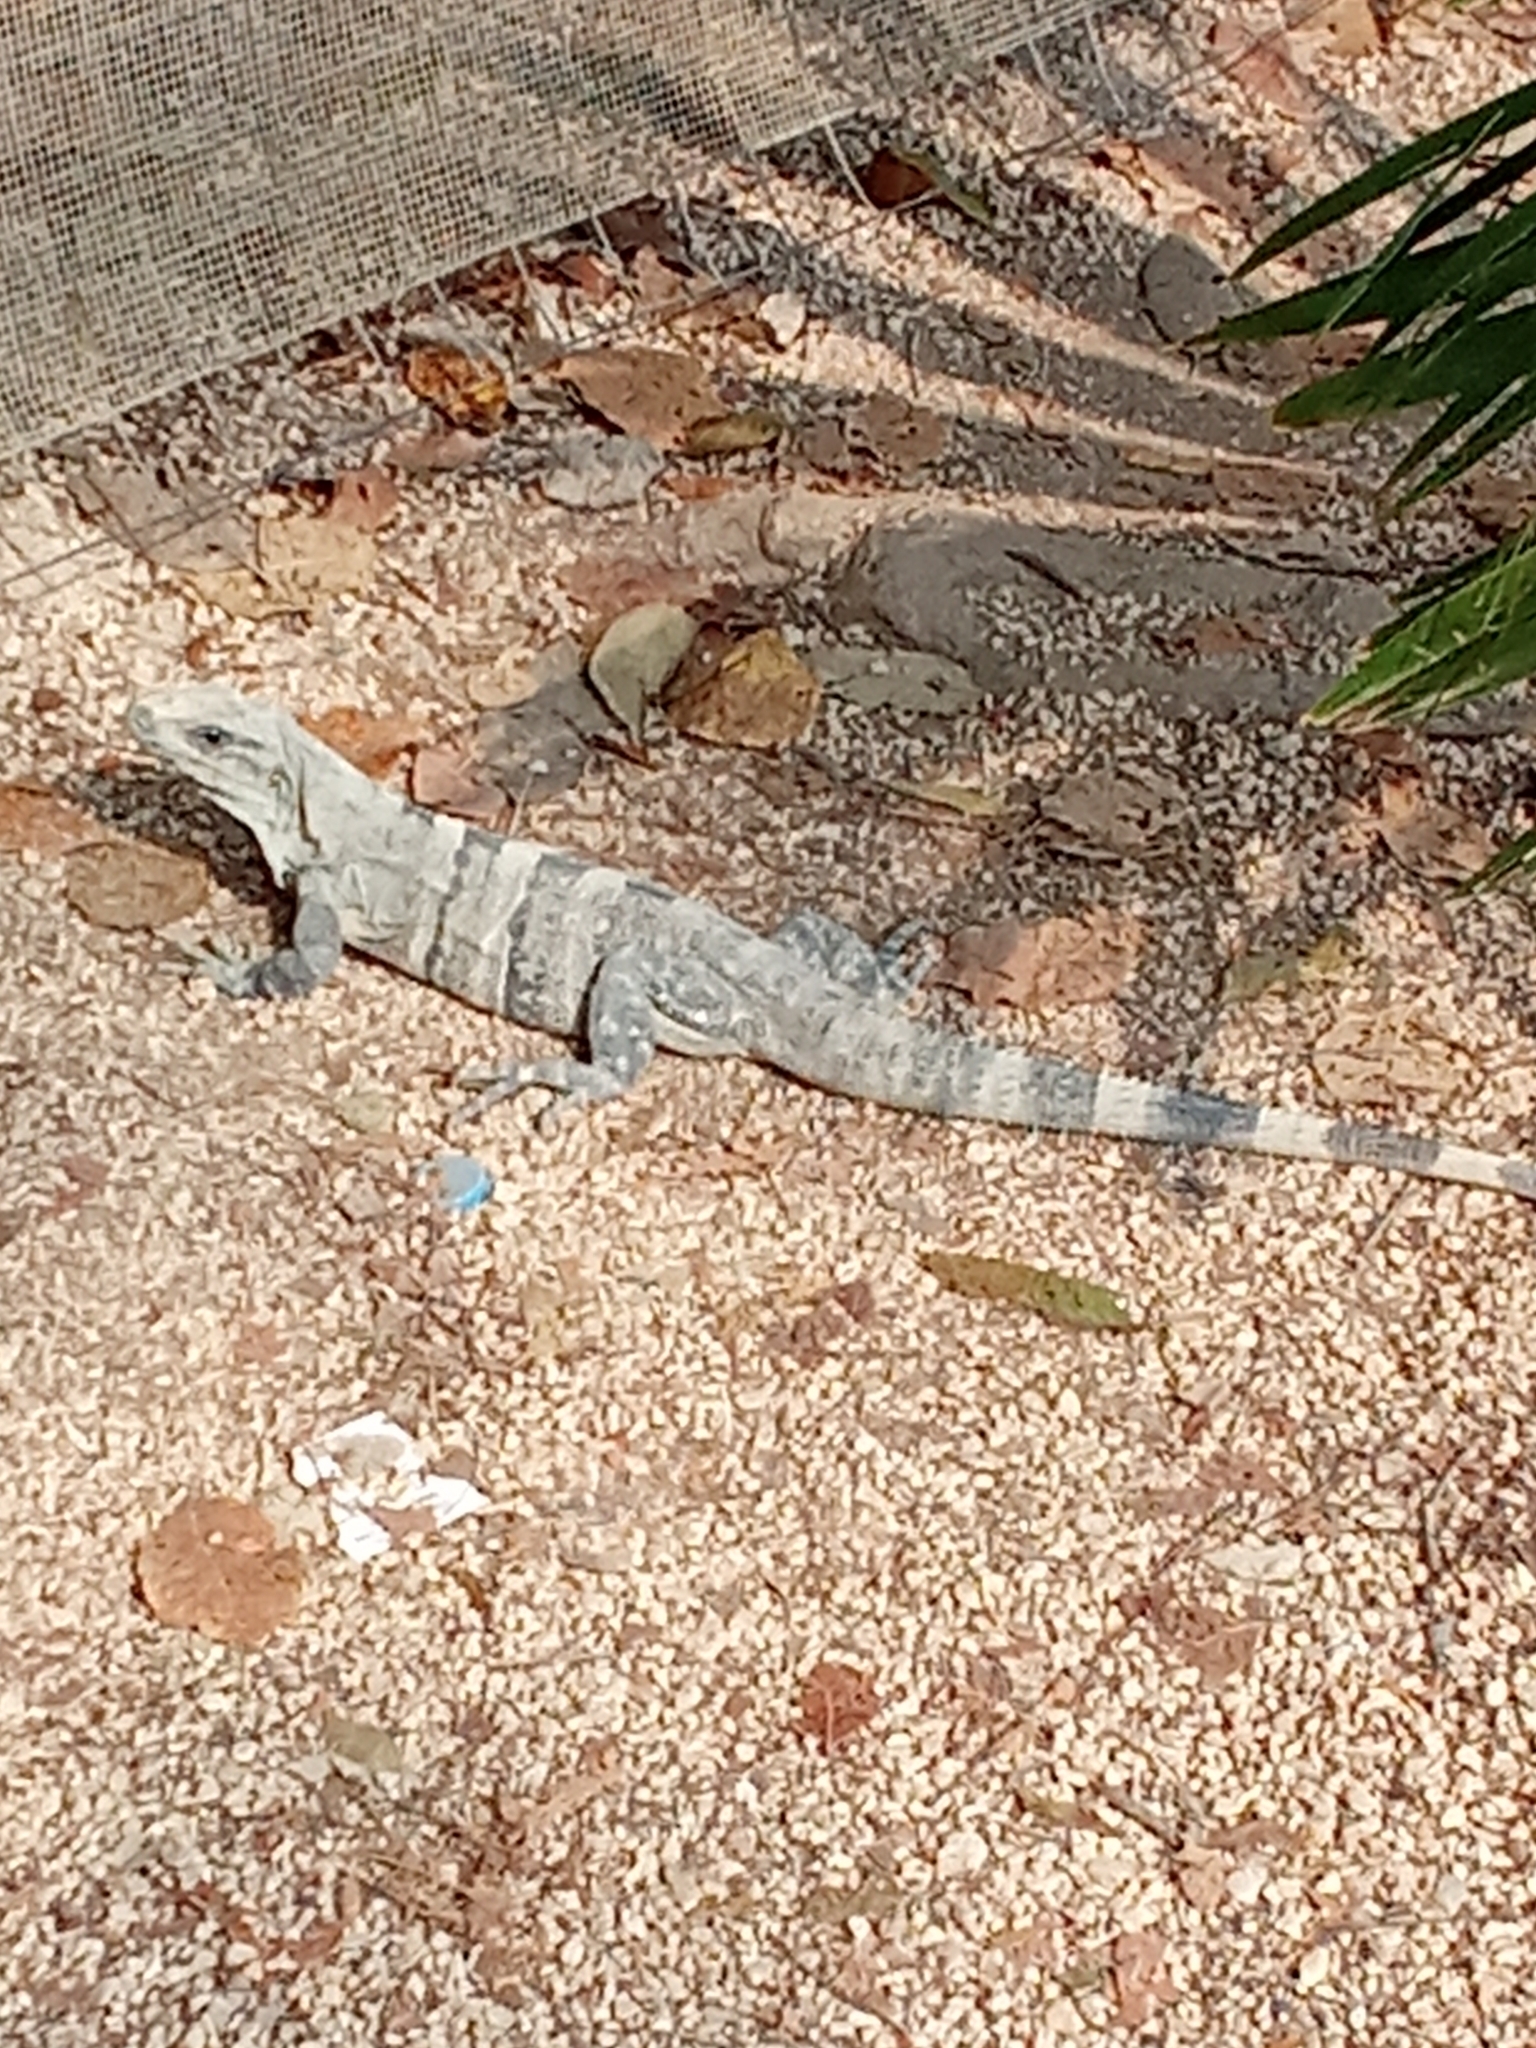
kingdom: Animalia
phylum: Chordata
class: Squamata
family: Iguanidae
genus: Ctenosaura
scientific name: Ctenosaura similis
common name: Black spiny-tailed iguana
